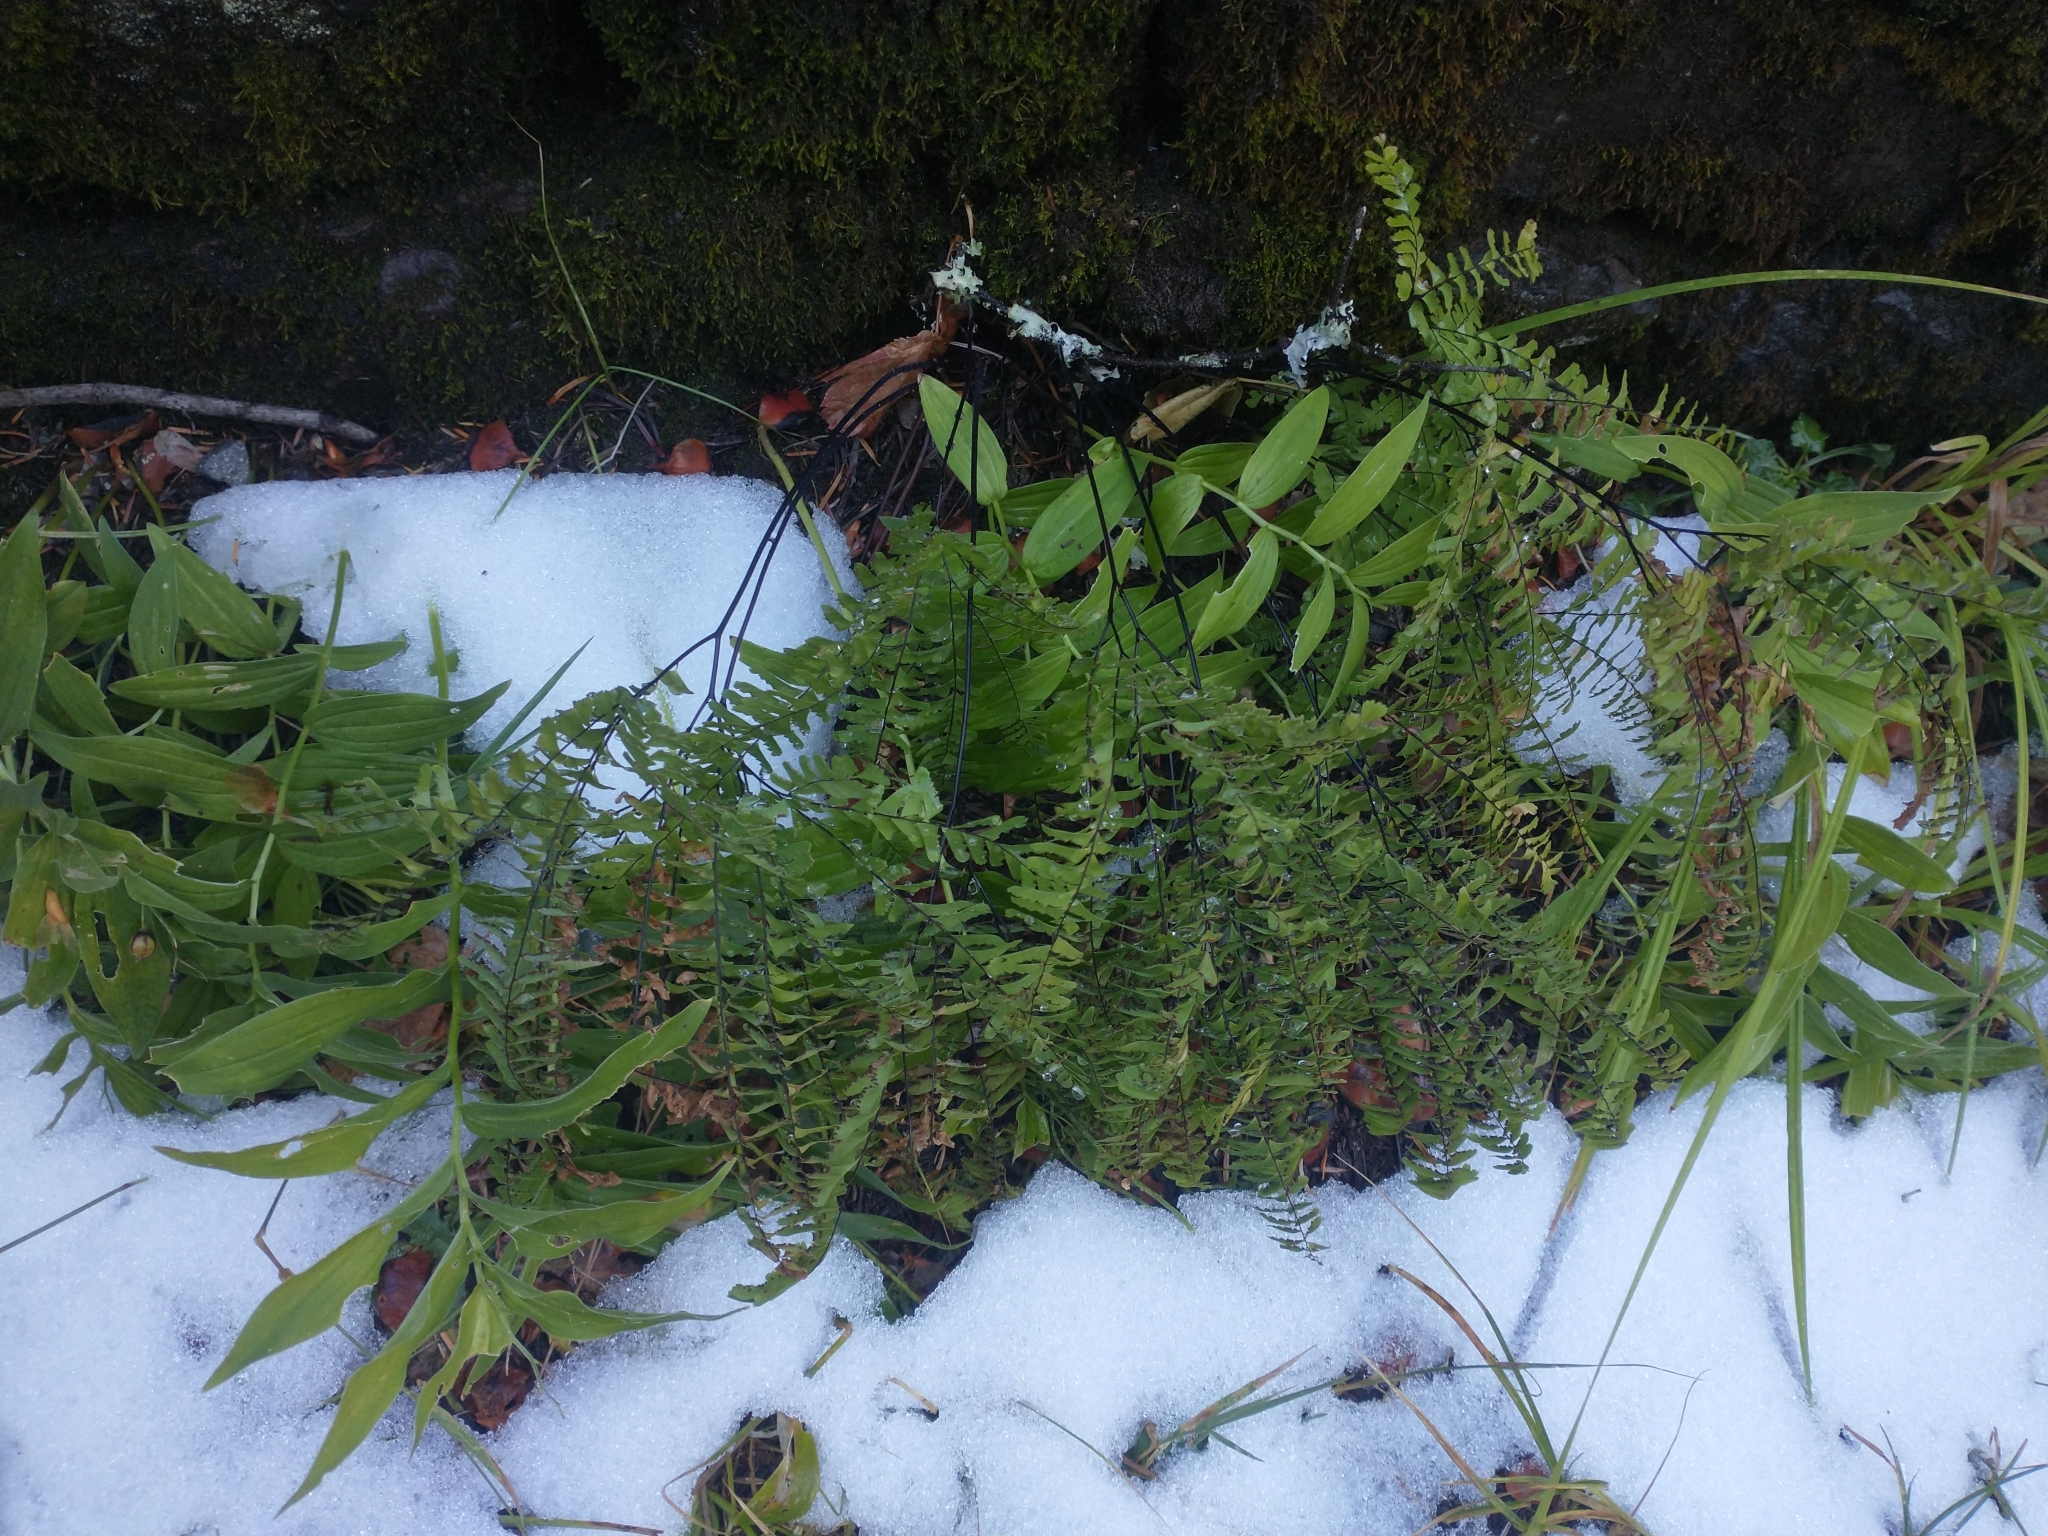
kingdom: Plantae
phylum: Tracheophyta
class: Polypodiopsida
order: Polypodiales
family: Pteridaceae
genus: Adiantum
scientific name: Adiantum aleuticum
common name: Aleutian maidenhair fern
